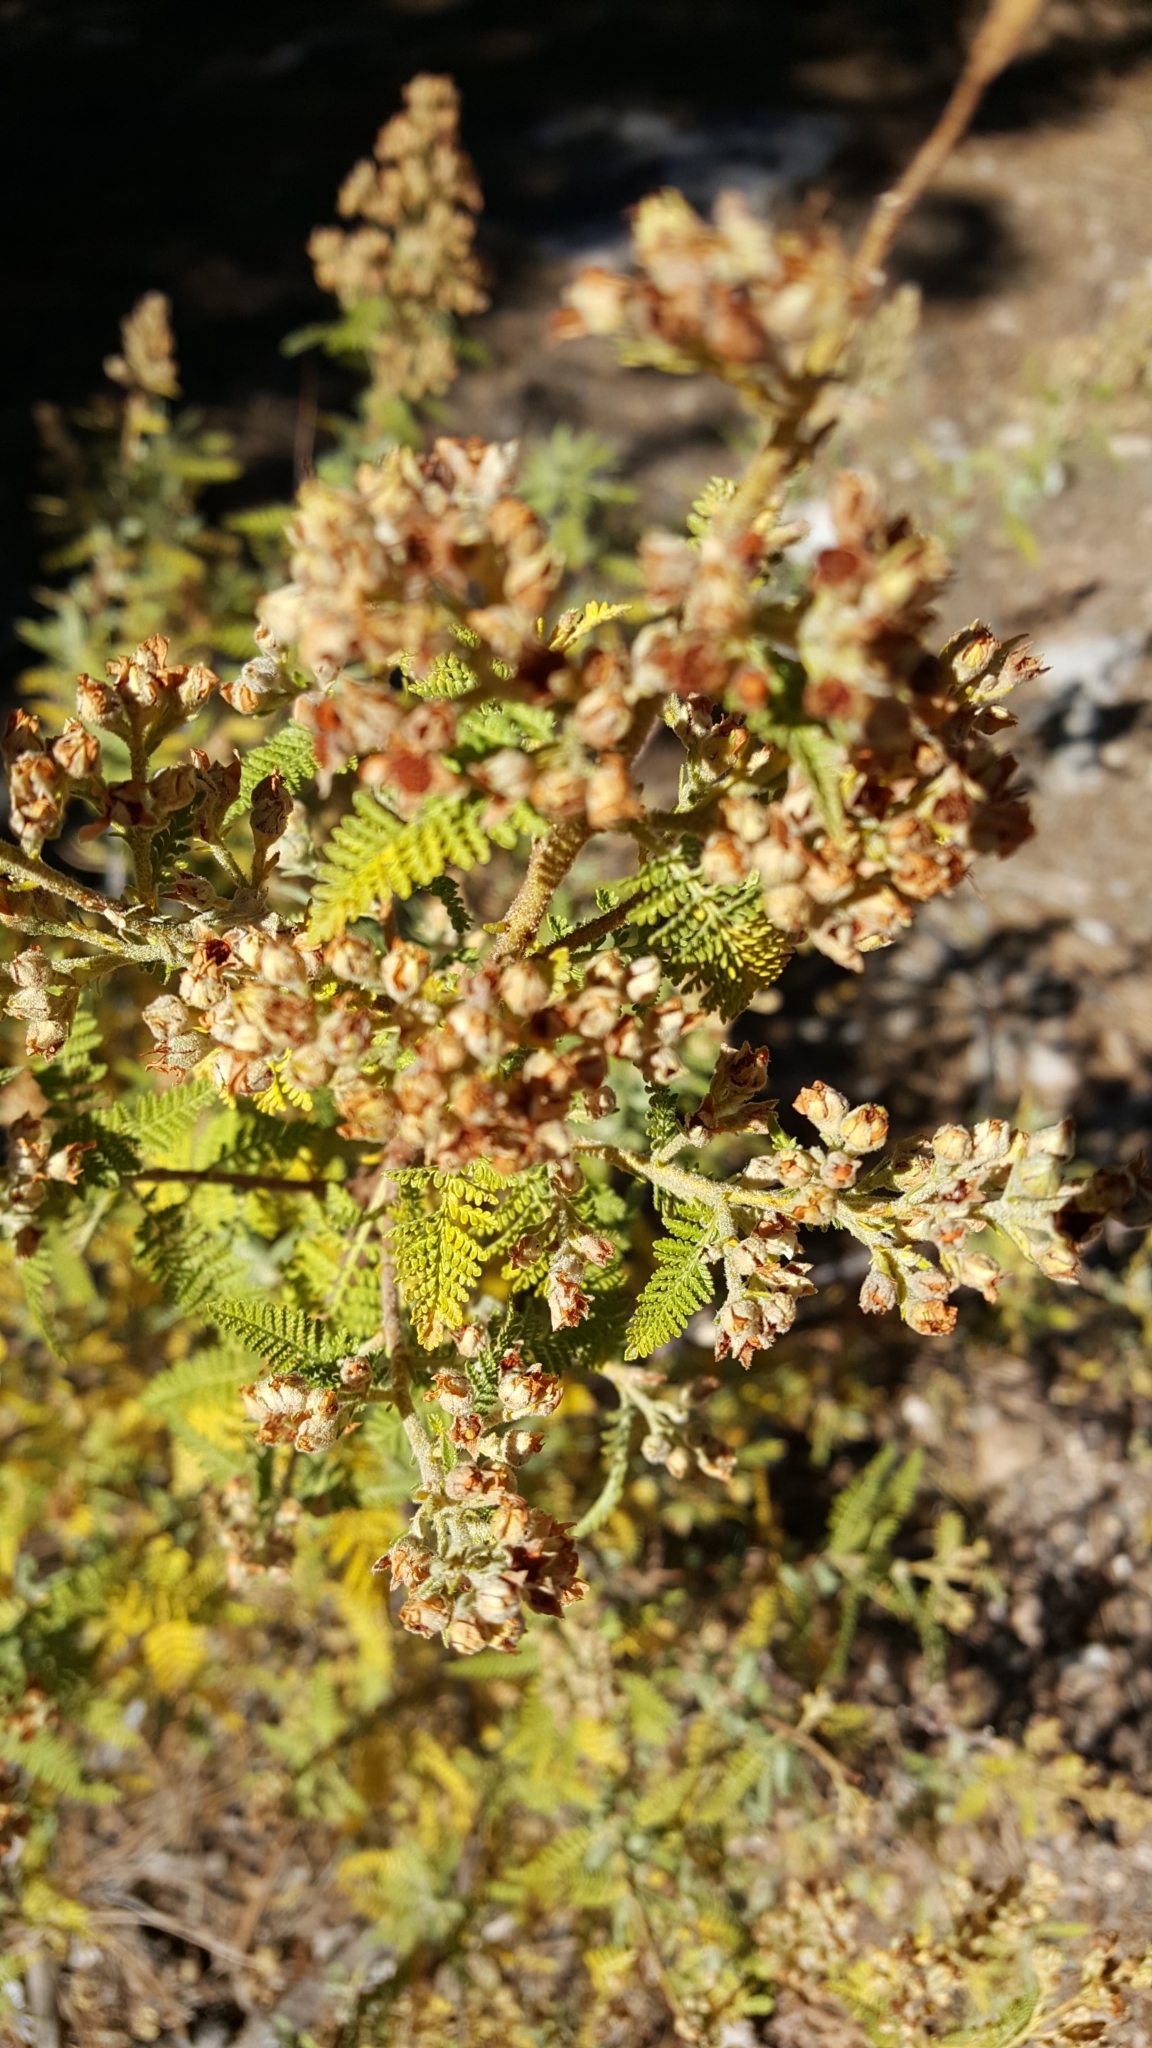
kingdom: Plantae
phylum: Tracheophyta
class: Magnoliopsida
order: Rosales
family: Rosaceae
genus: Chamaebatiaria
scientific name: Chamaebatiaria millefolium
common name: Fernbush
